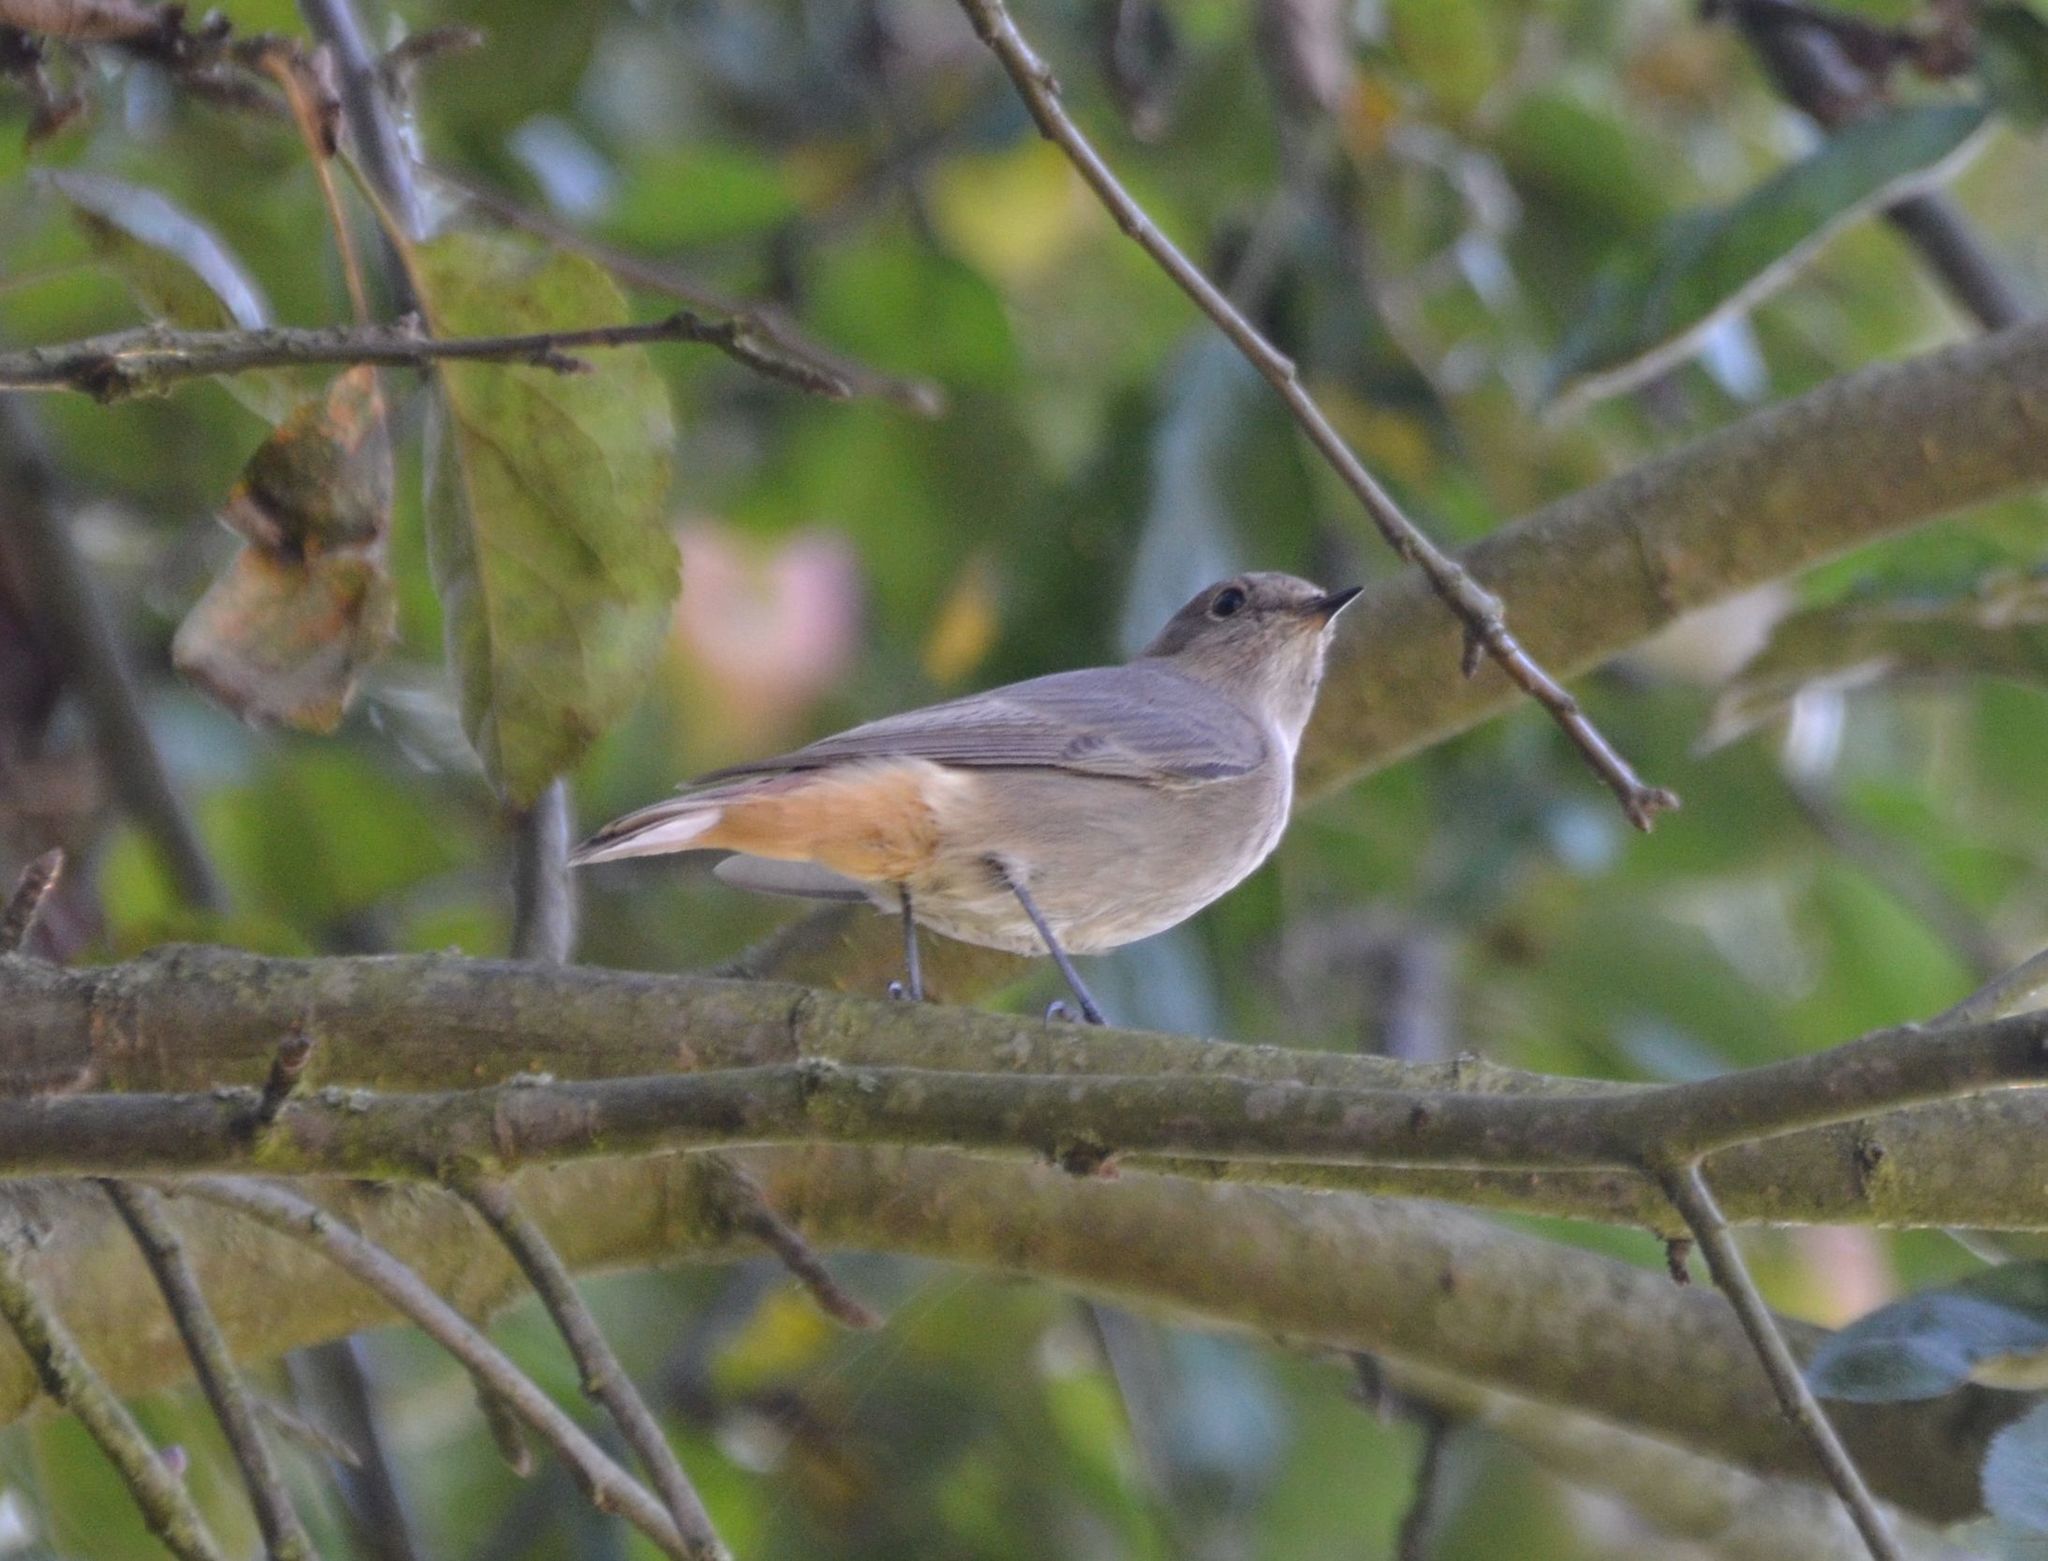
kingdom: Animalia
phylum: Chordata
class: Aves
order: Passeriformes
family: Muscicapidae
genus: Phoenicurus
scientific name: Phoenicurus ochruros
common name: Black redstart
